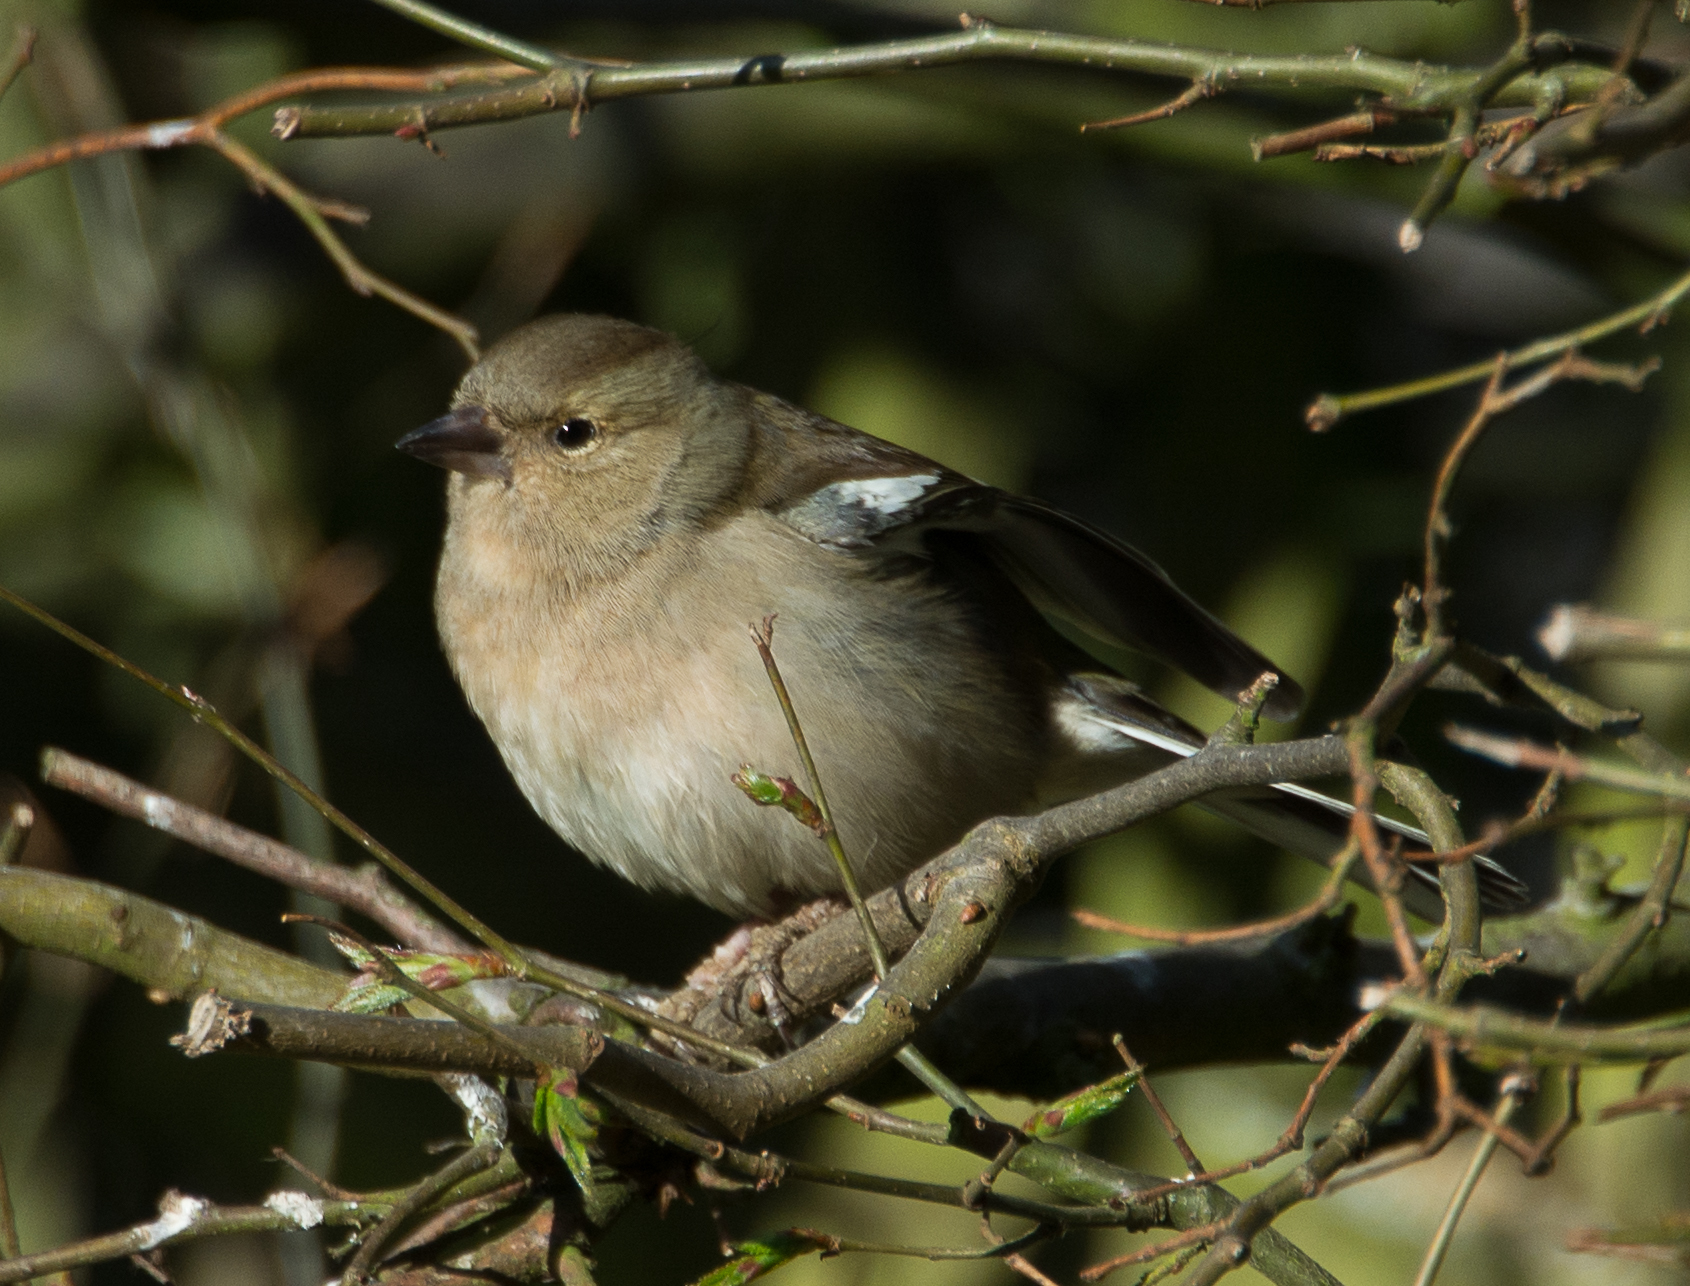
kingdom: Animalia
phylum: Chordata
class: Aves
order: Passeriformes
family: Fringillidae
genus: Fringilla
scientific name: Fringilla coelebs
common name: Common chaffinch
